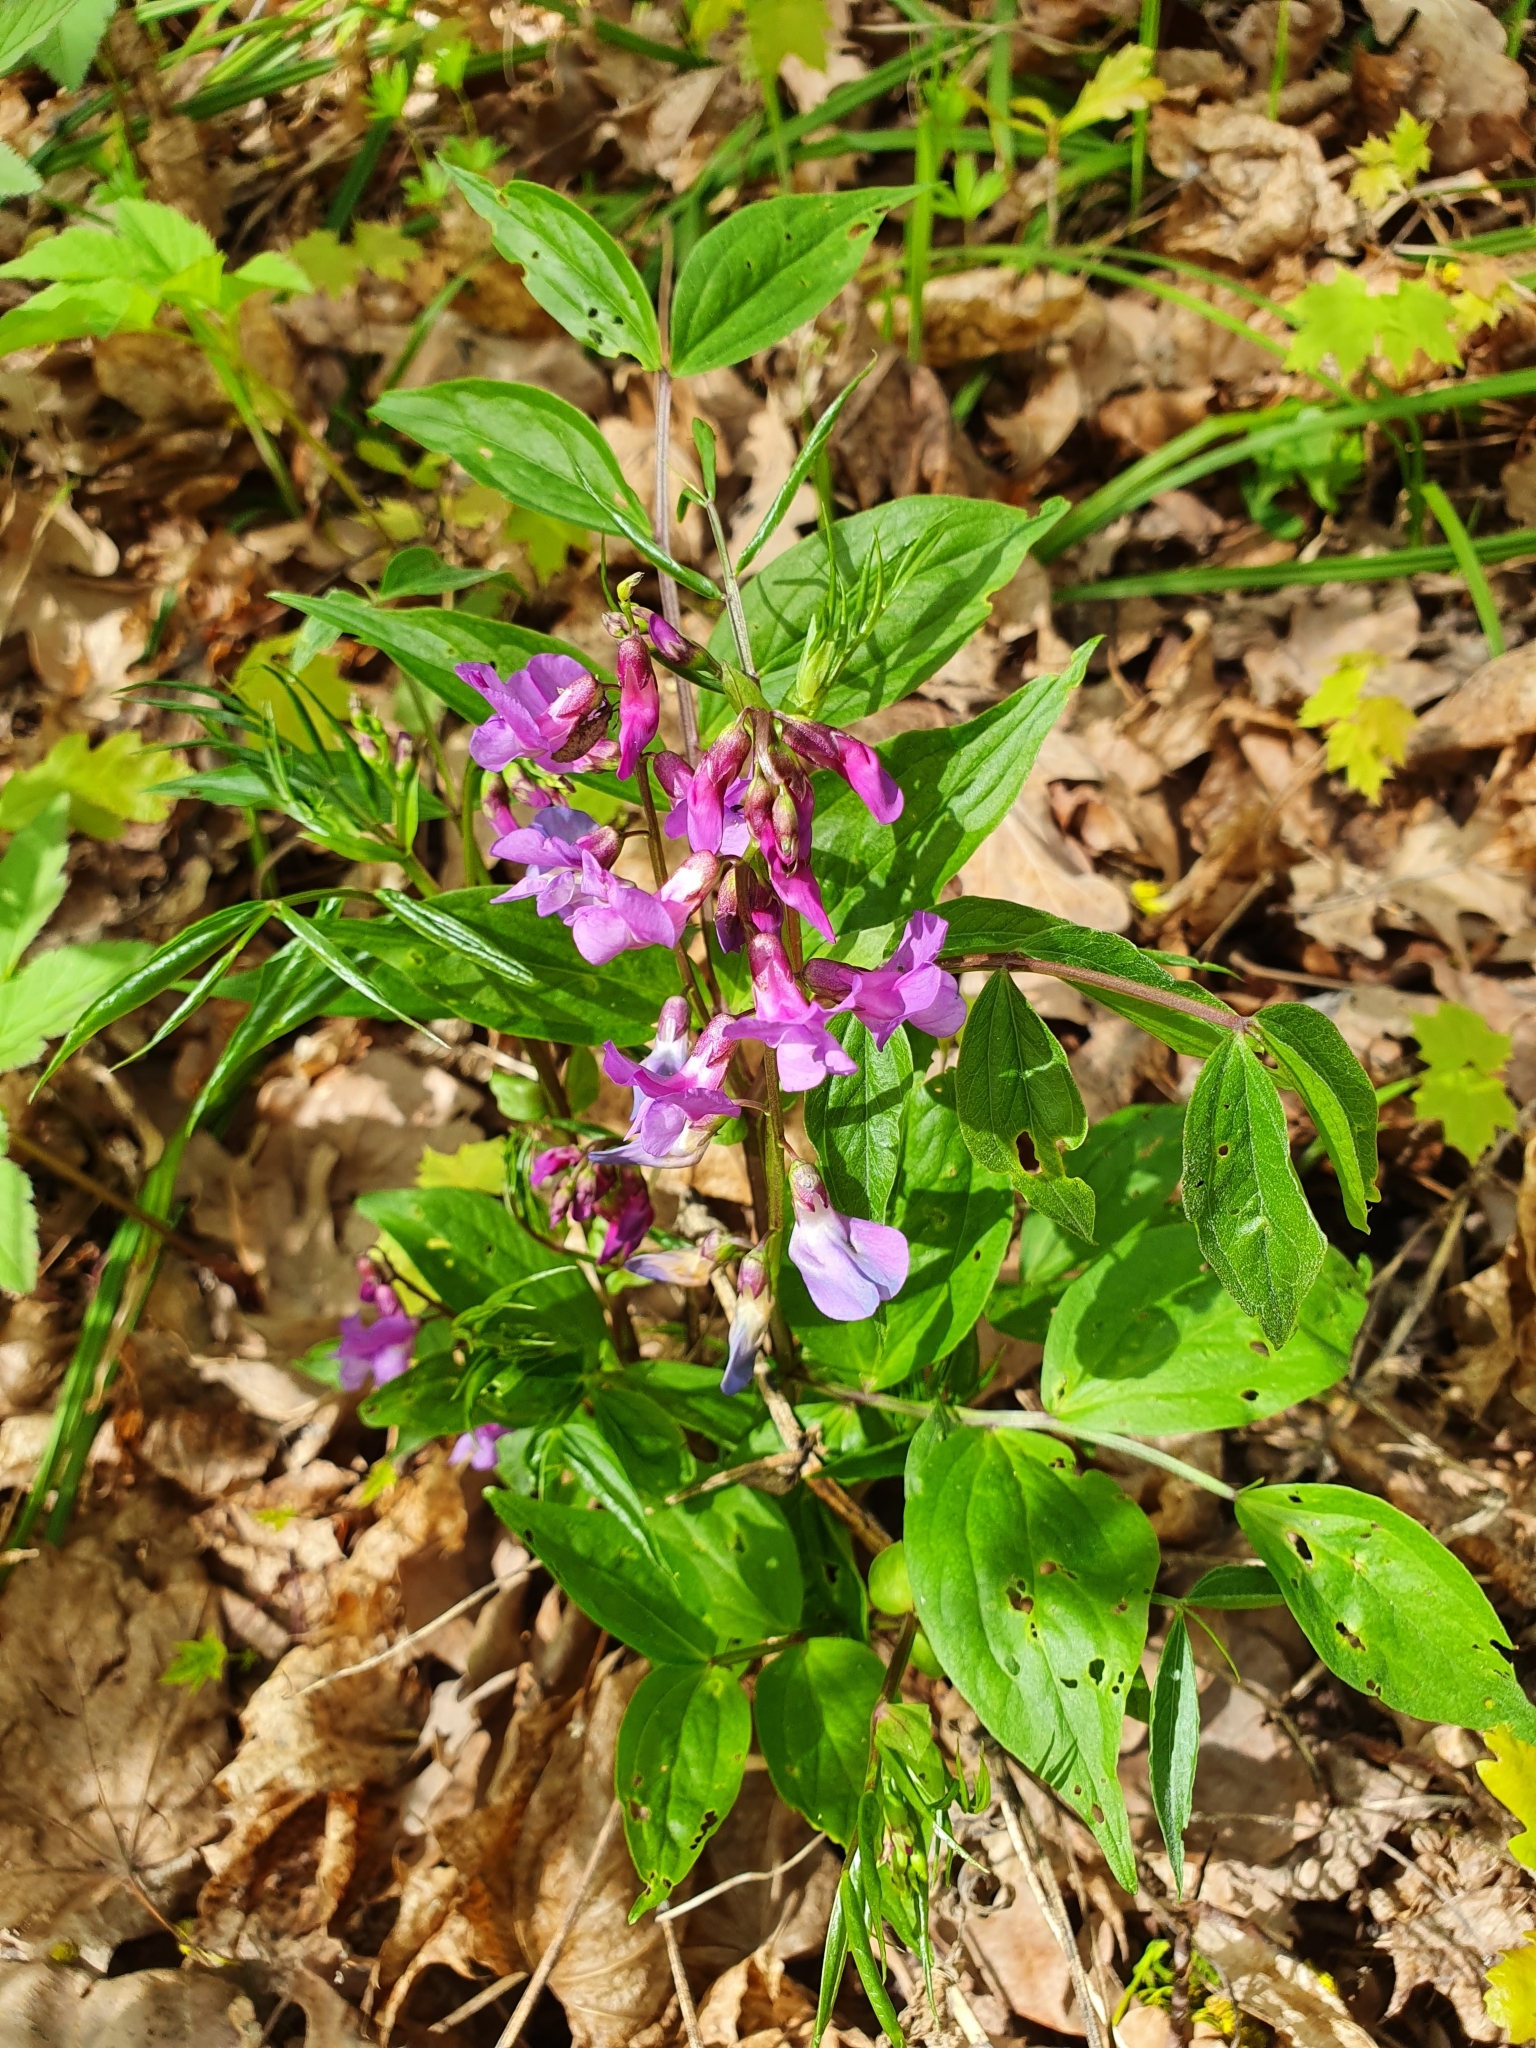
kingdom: Plantae
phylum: Tracheophyta
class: Magnoliopsida
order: Fabales
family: Fabaceae
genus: Lathyrus
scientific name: Lathyrus vernus
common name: Spring pea
